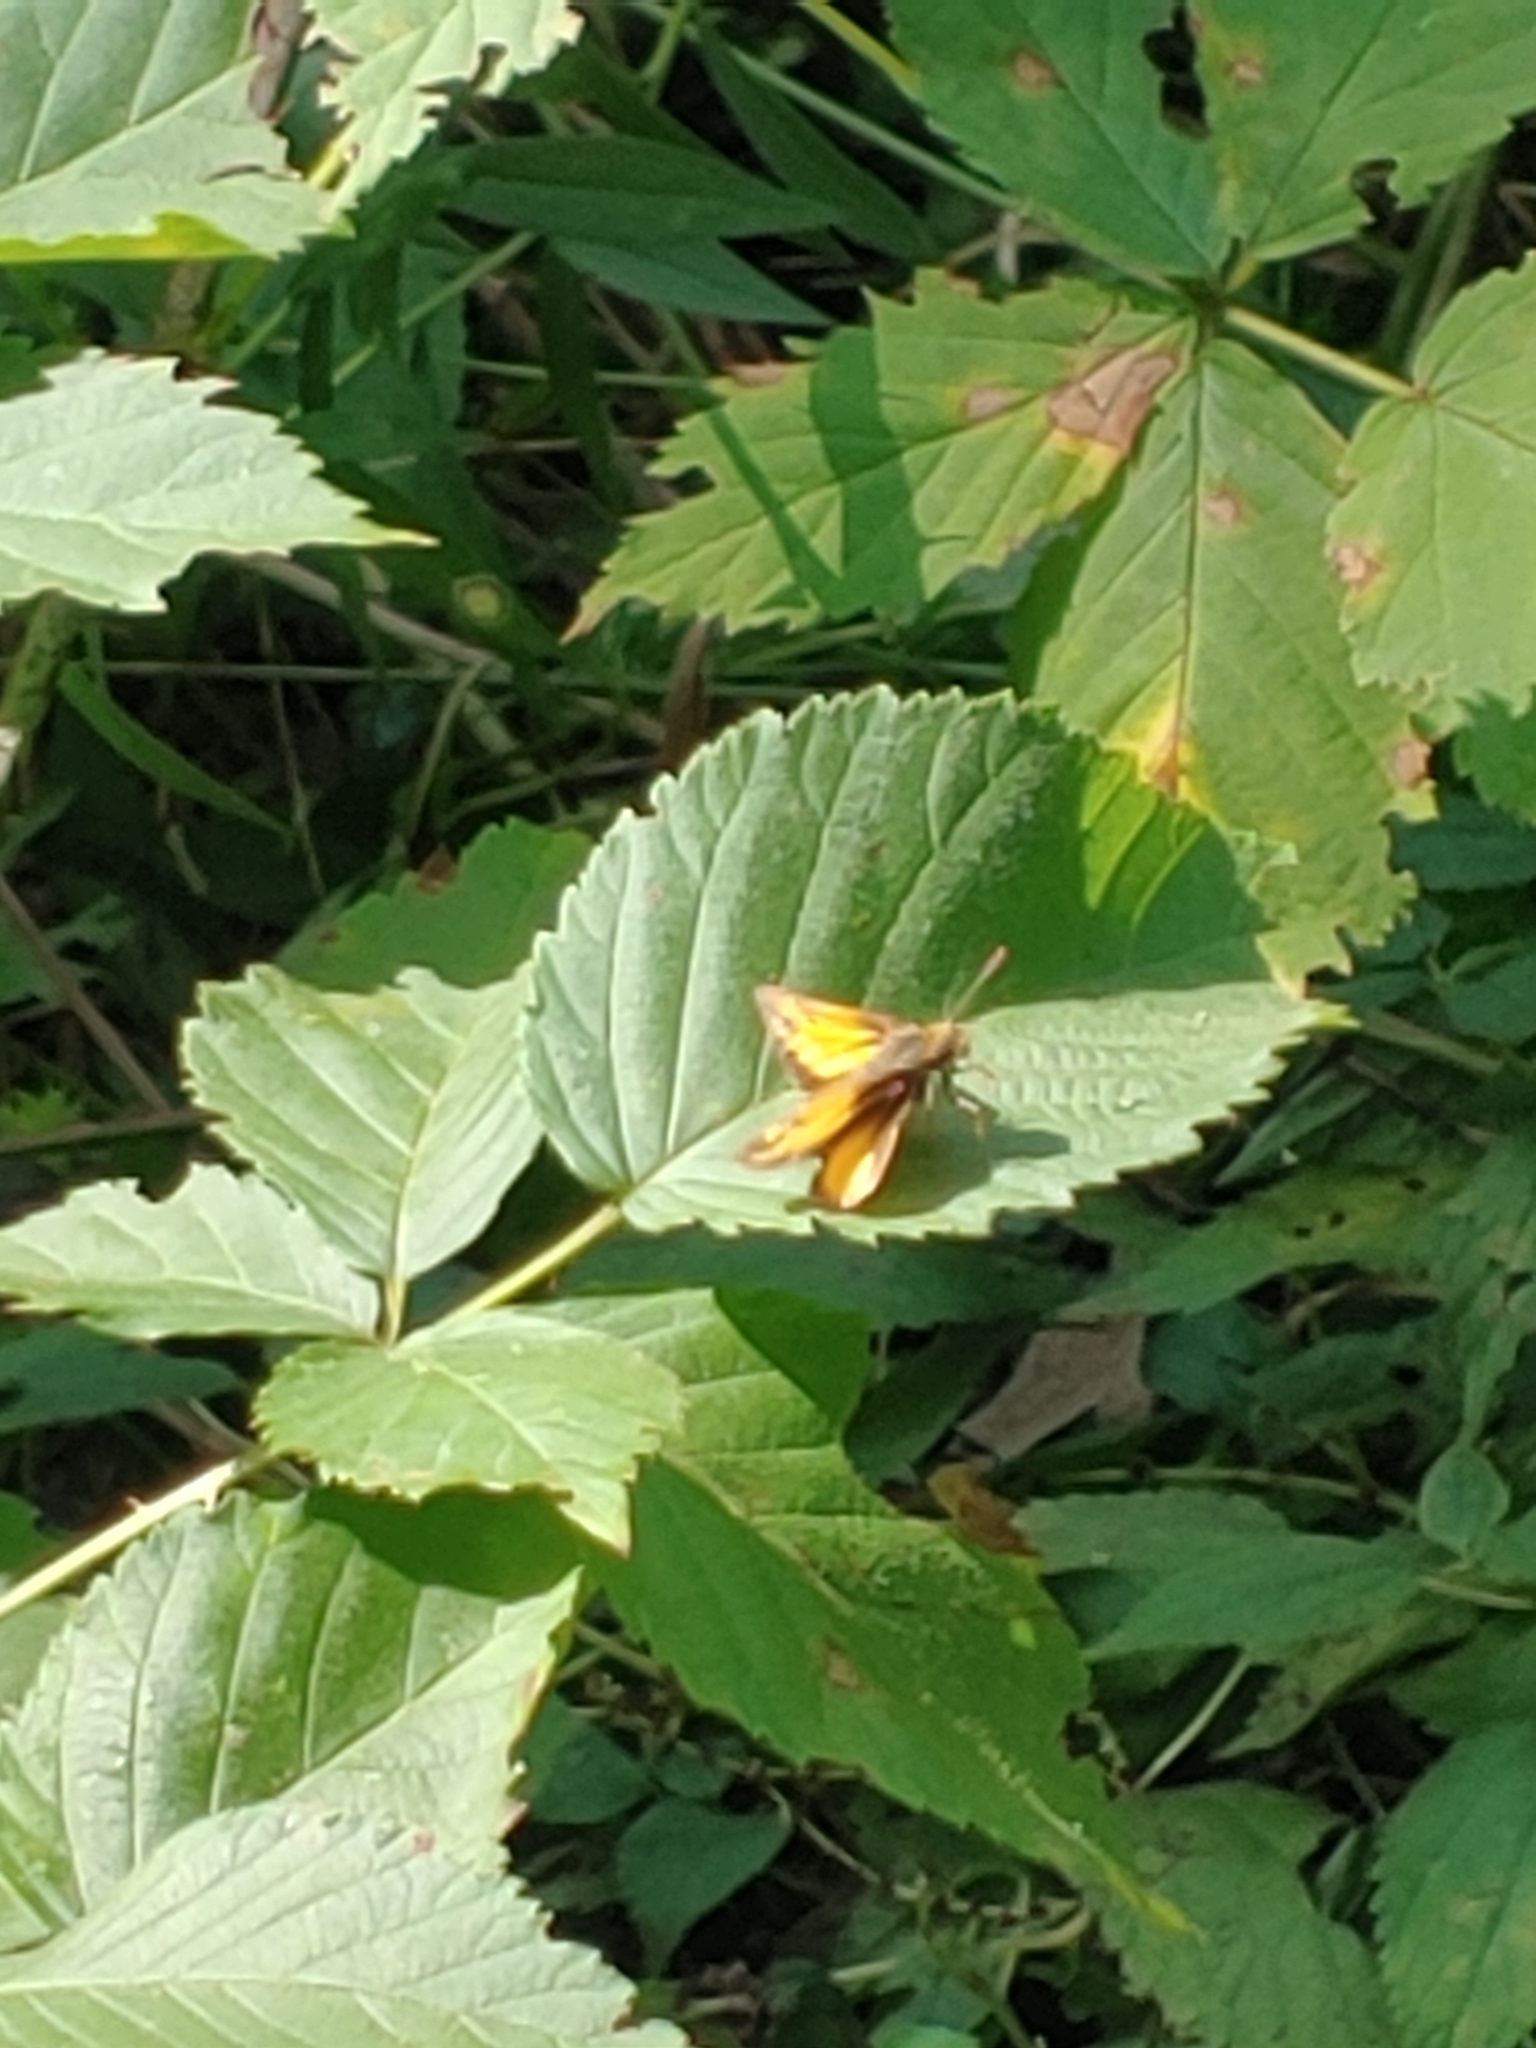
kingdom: Animalia
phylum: Arthropoda
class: Insecta
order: Lepidoptera
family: Hesperiidae
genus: Lon
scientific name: Lon zabulon
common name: Zabulon skipper
